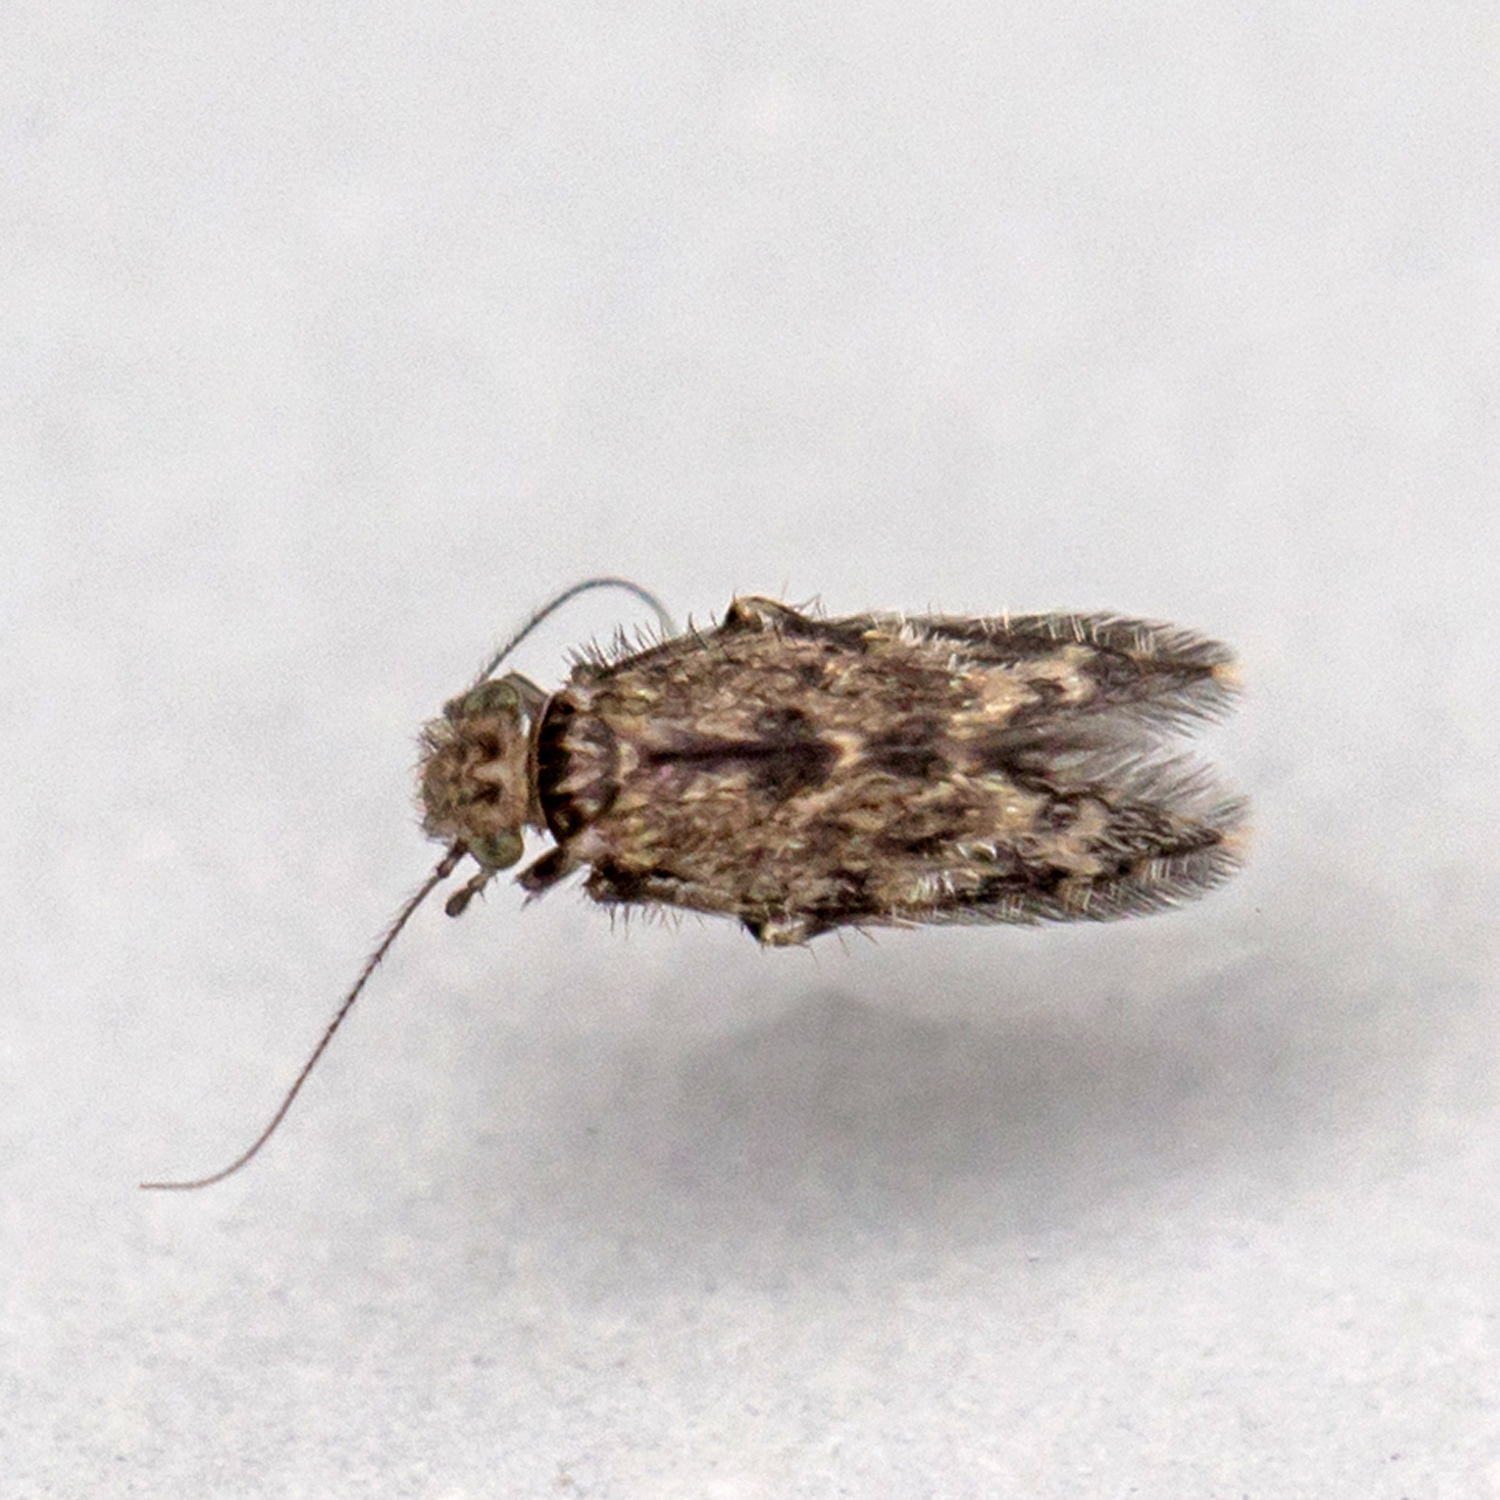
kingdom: Animalia
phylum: Arthropoda
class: Insecta
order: Psocodea
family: Lepidopsocidae
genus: Echmepteryx
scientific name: Echmepteryx hageni
